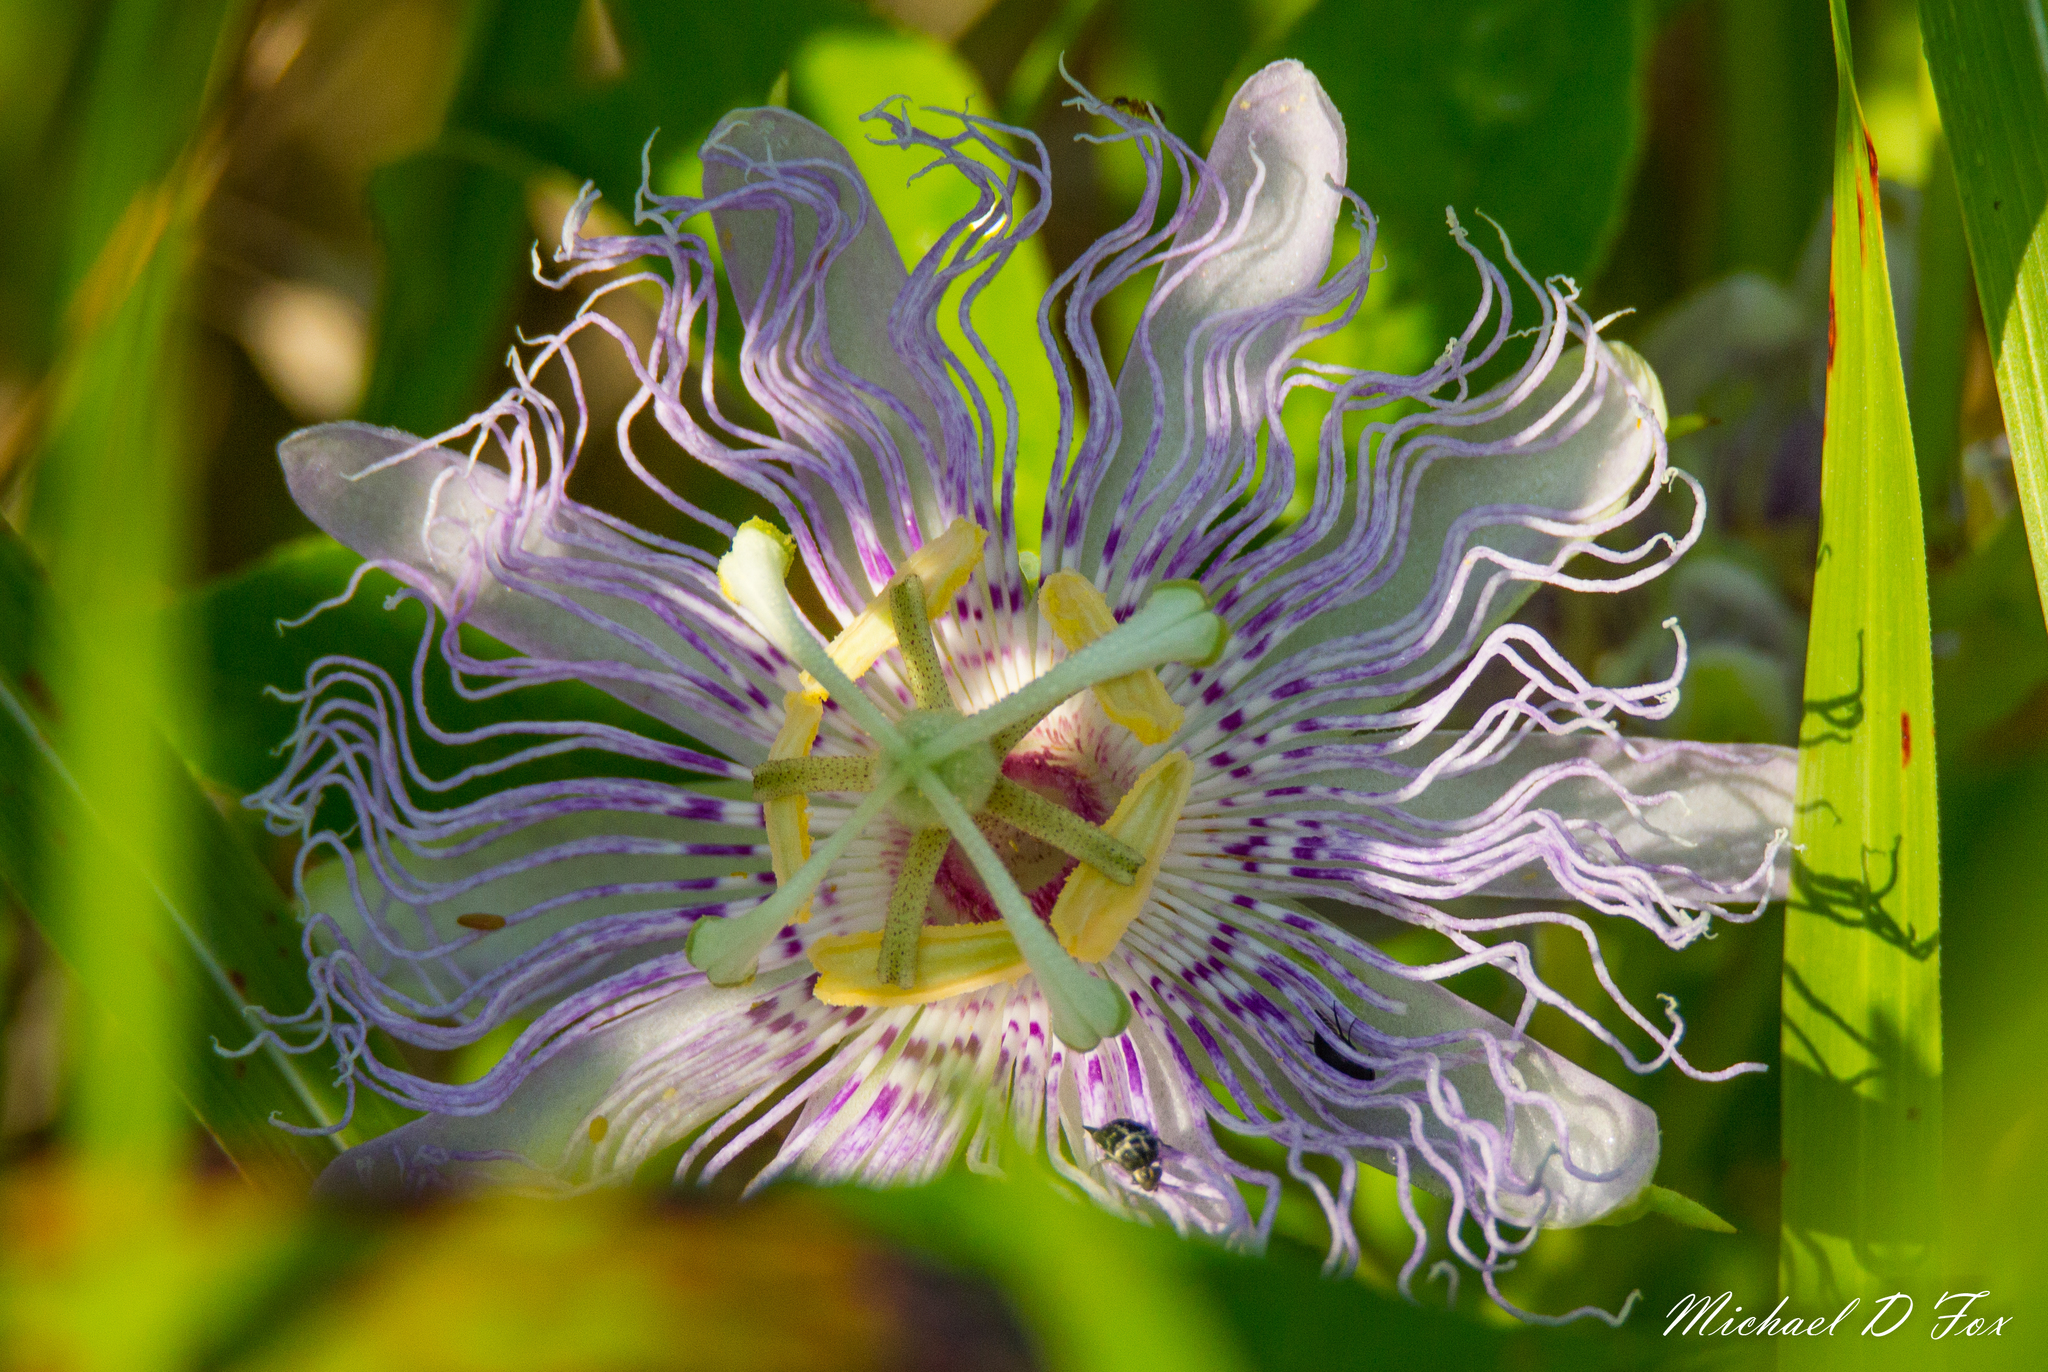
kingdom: Plantae
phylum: Tracheophyta
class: Magnoliopsida
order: Malpighiales
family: Passifloraceae
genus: Passiflora
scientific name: Passiflora incarnata
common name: Apricot-vine
